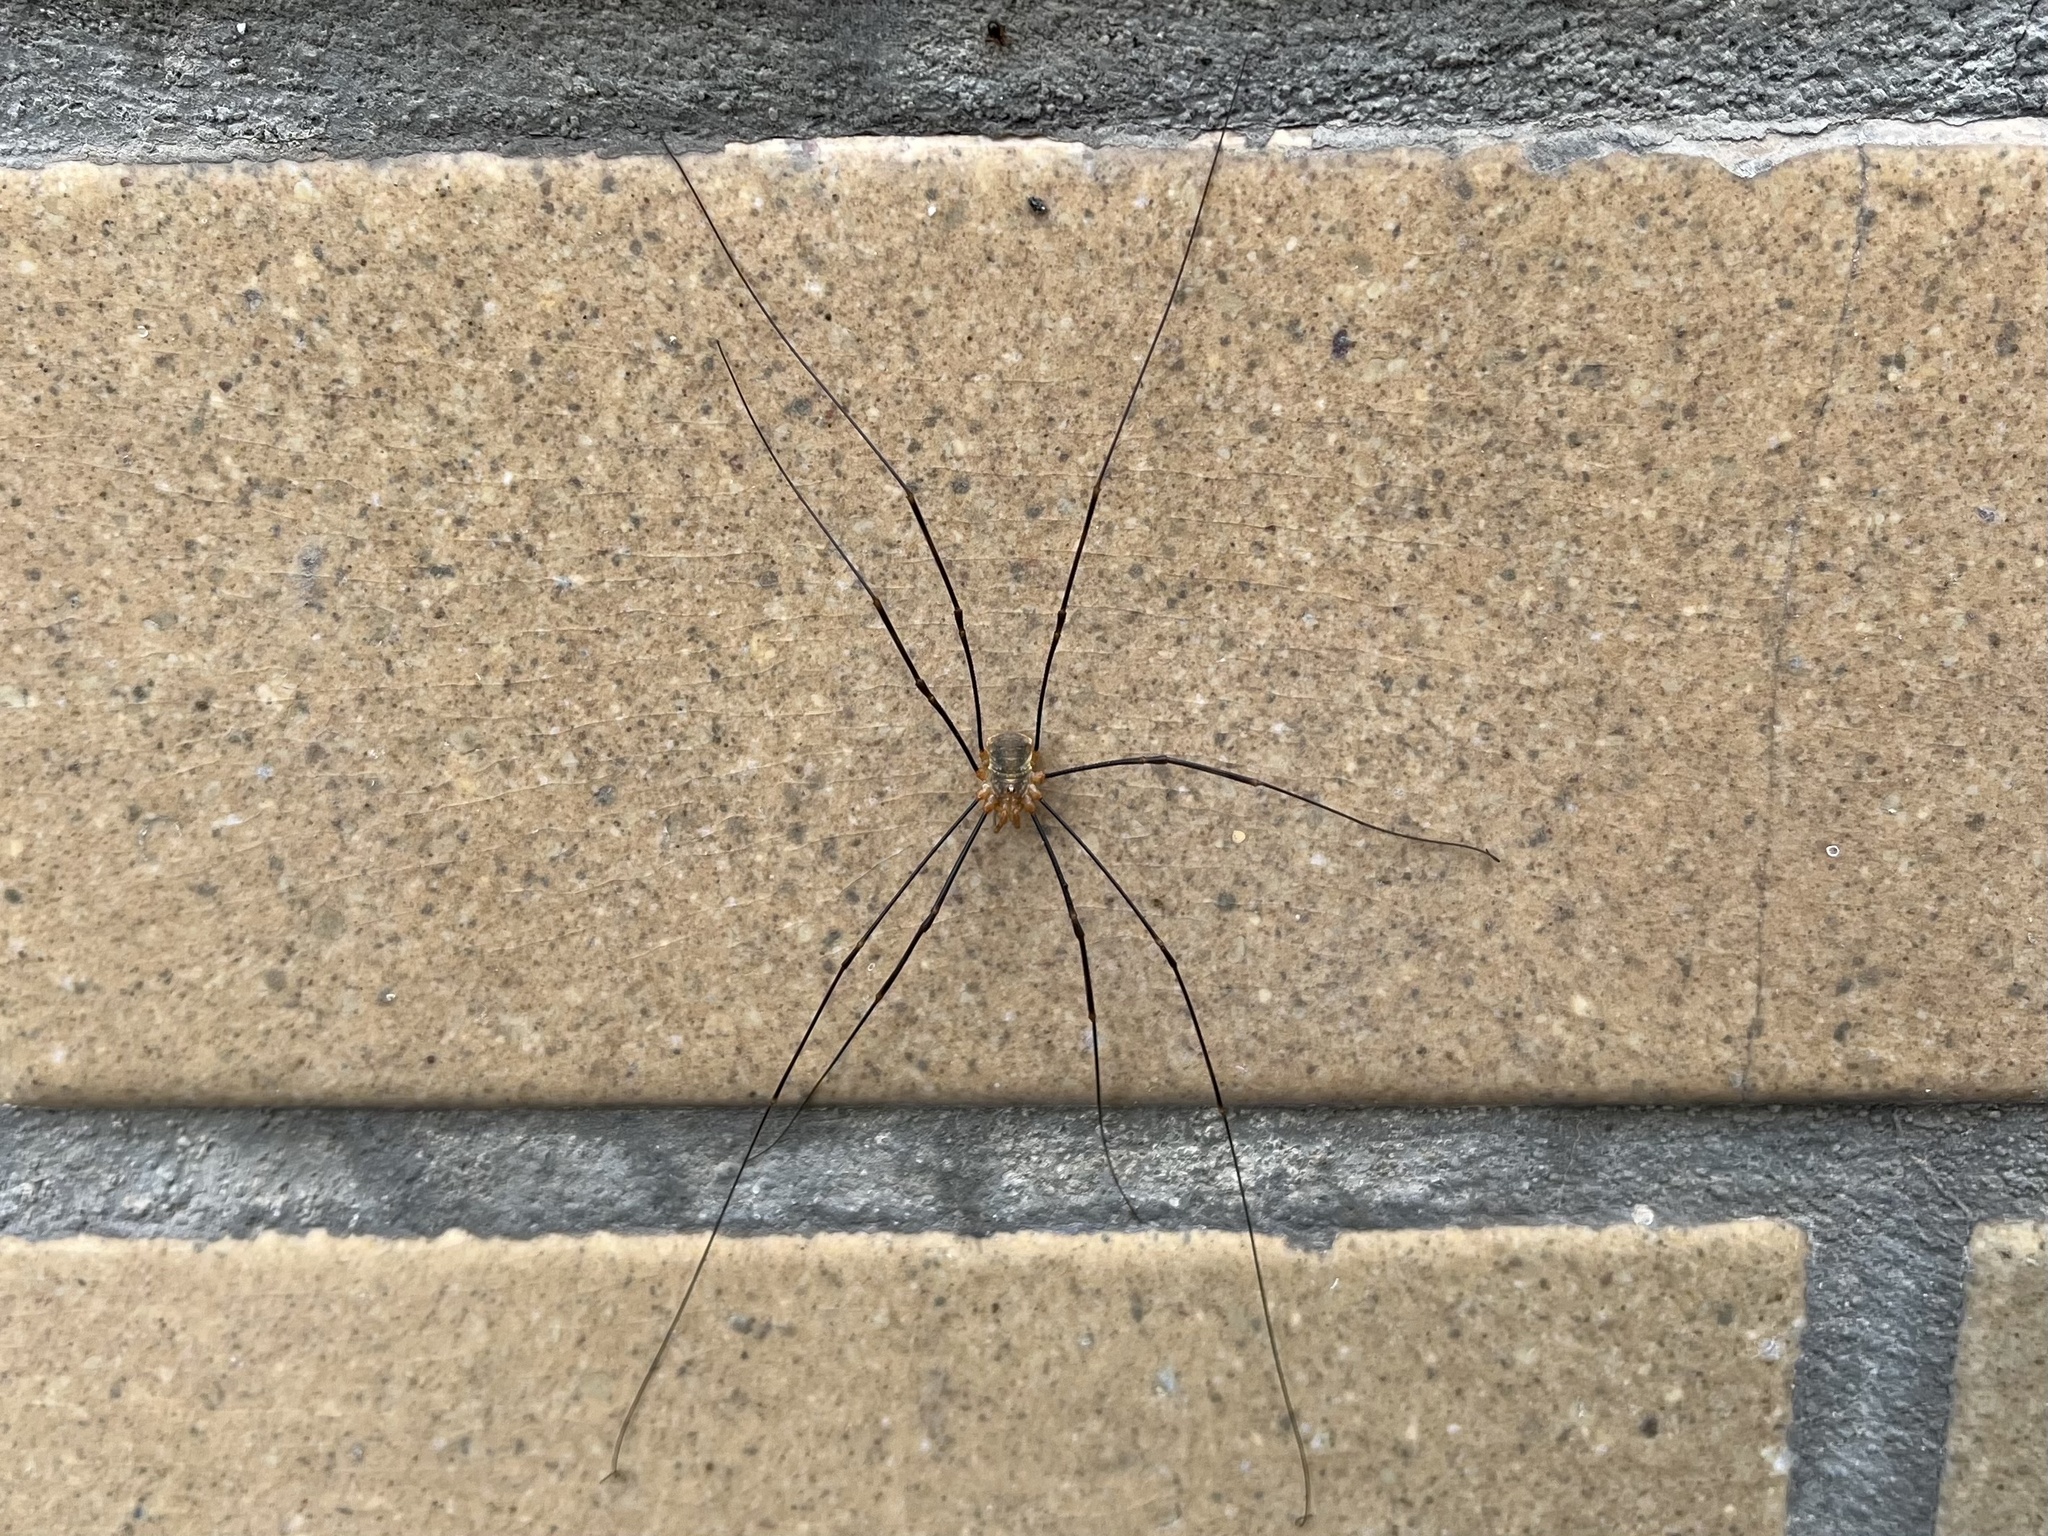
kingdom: Animalia
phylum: Arthropoda
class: Arachnida
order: Opiliones
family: Phalangiidae
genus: Opilio
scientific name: Opilio canestrinii
